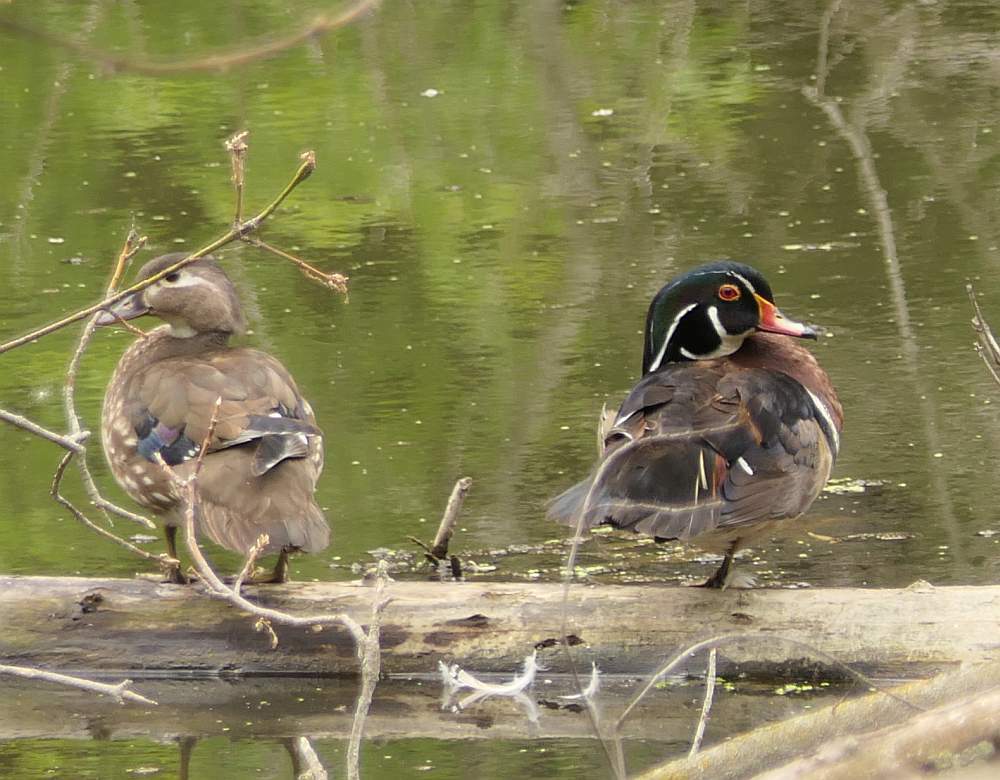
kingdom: Animalia
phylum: Chordata
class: Aves
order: Anseriformes
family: Anatidae
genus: Aix
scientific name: Aix sponsa
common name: Wood duck
